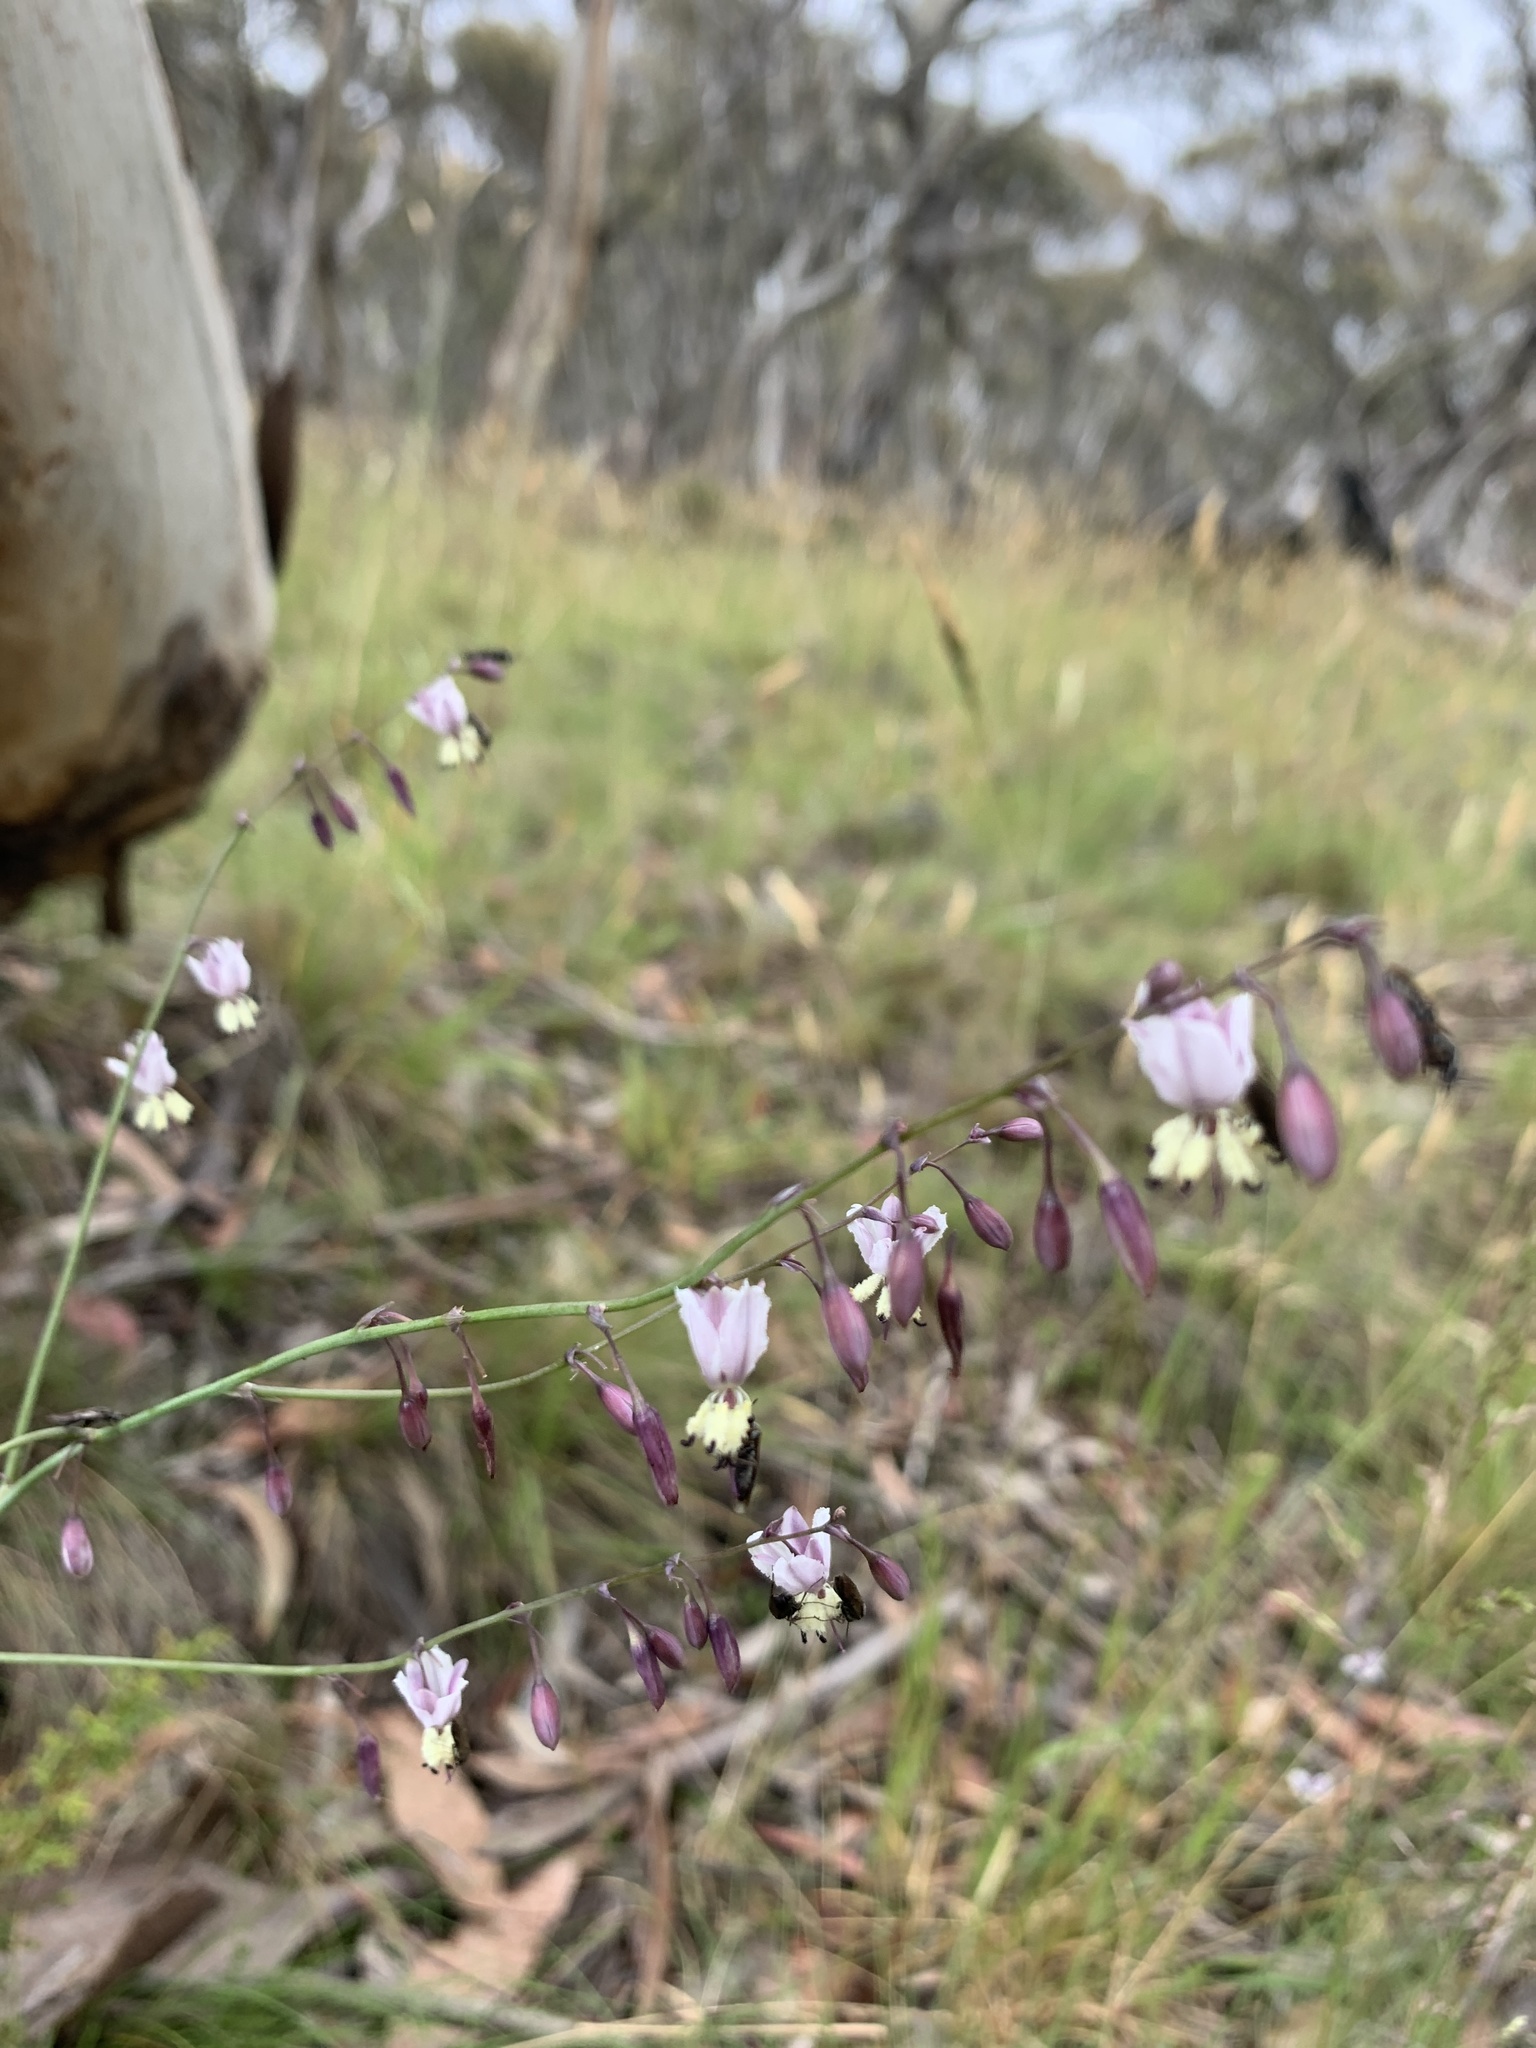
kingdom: Plantae
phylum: Tracheophyta
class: Liliopsida
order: Asparagales
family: Asparagaceae
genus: Arthropodium
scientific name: Arthropodium milleflorum
